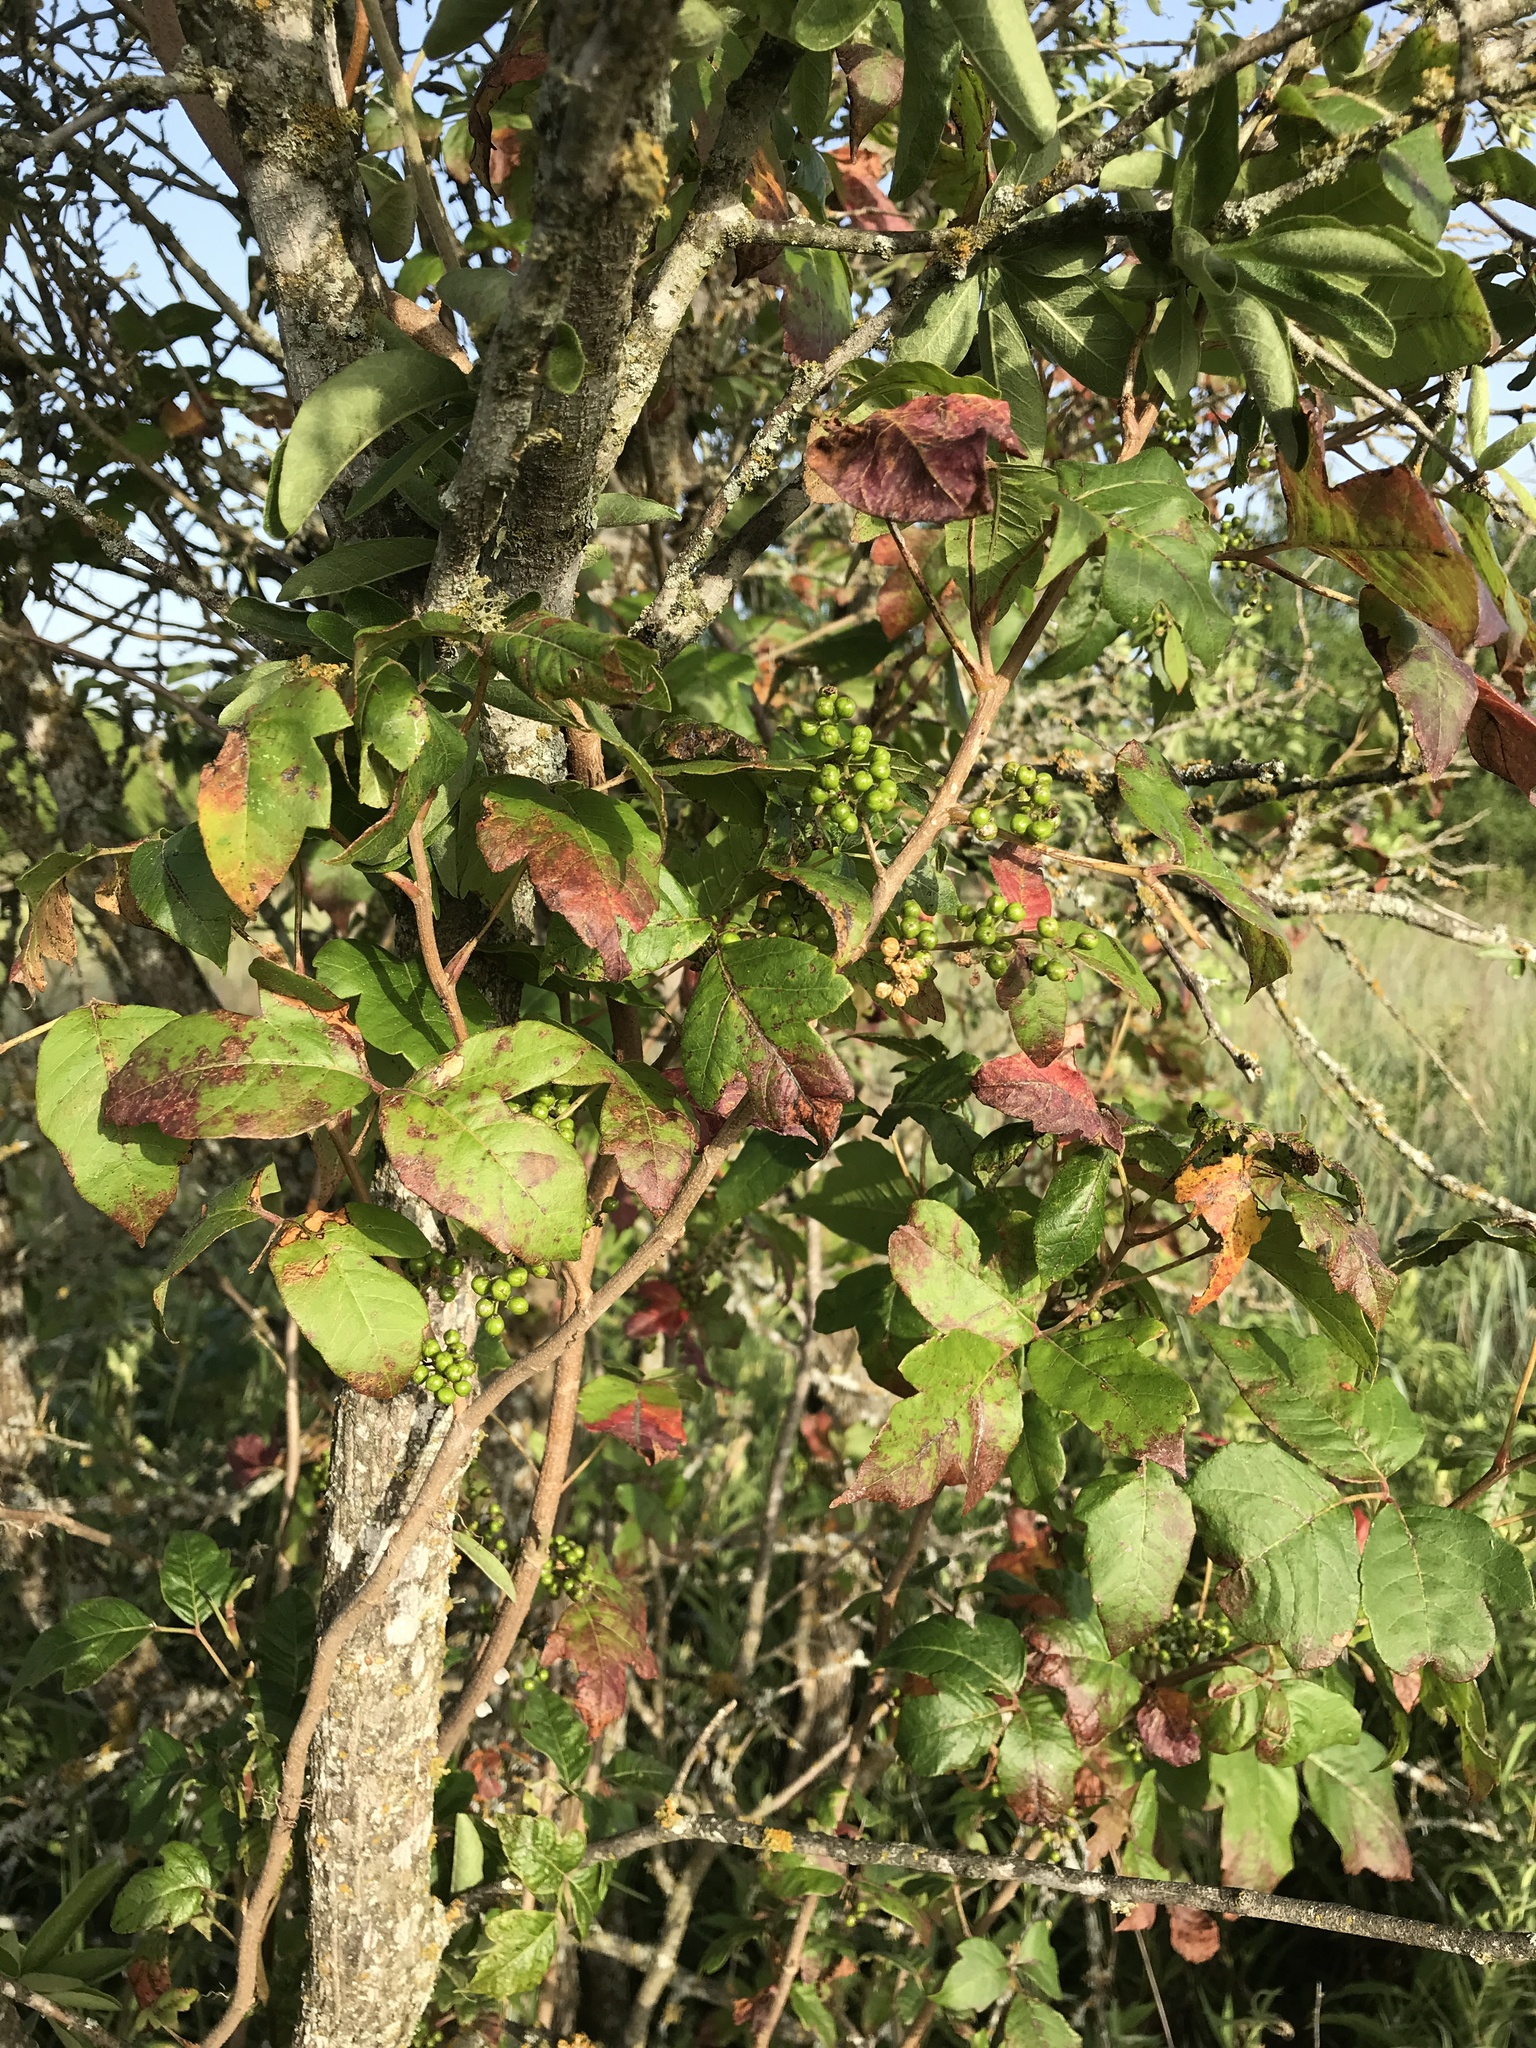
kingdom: Plantae
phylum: Tracheophyta
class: Magnoliopsida
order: Sapindales
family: Anacardiaceae
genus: Toxicodendron
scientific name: Toxicodendron radicans
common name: Poison ivy
